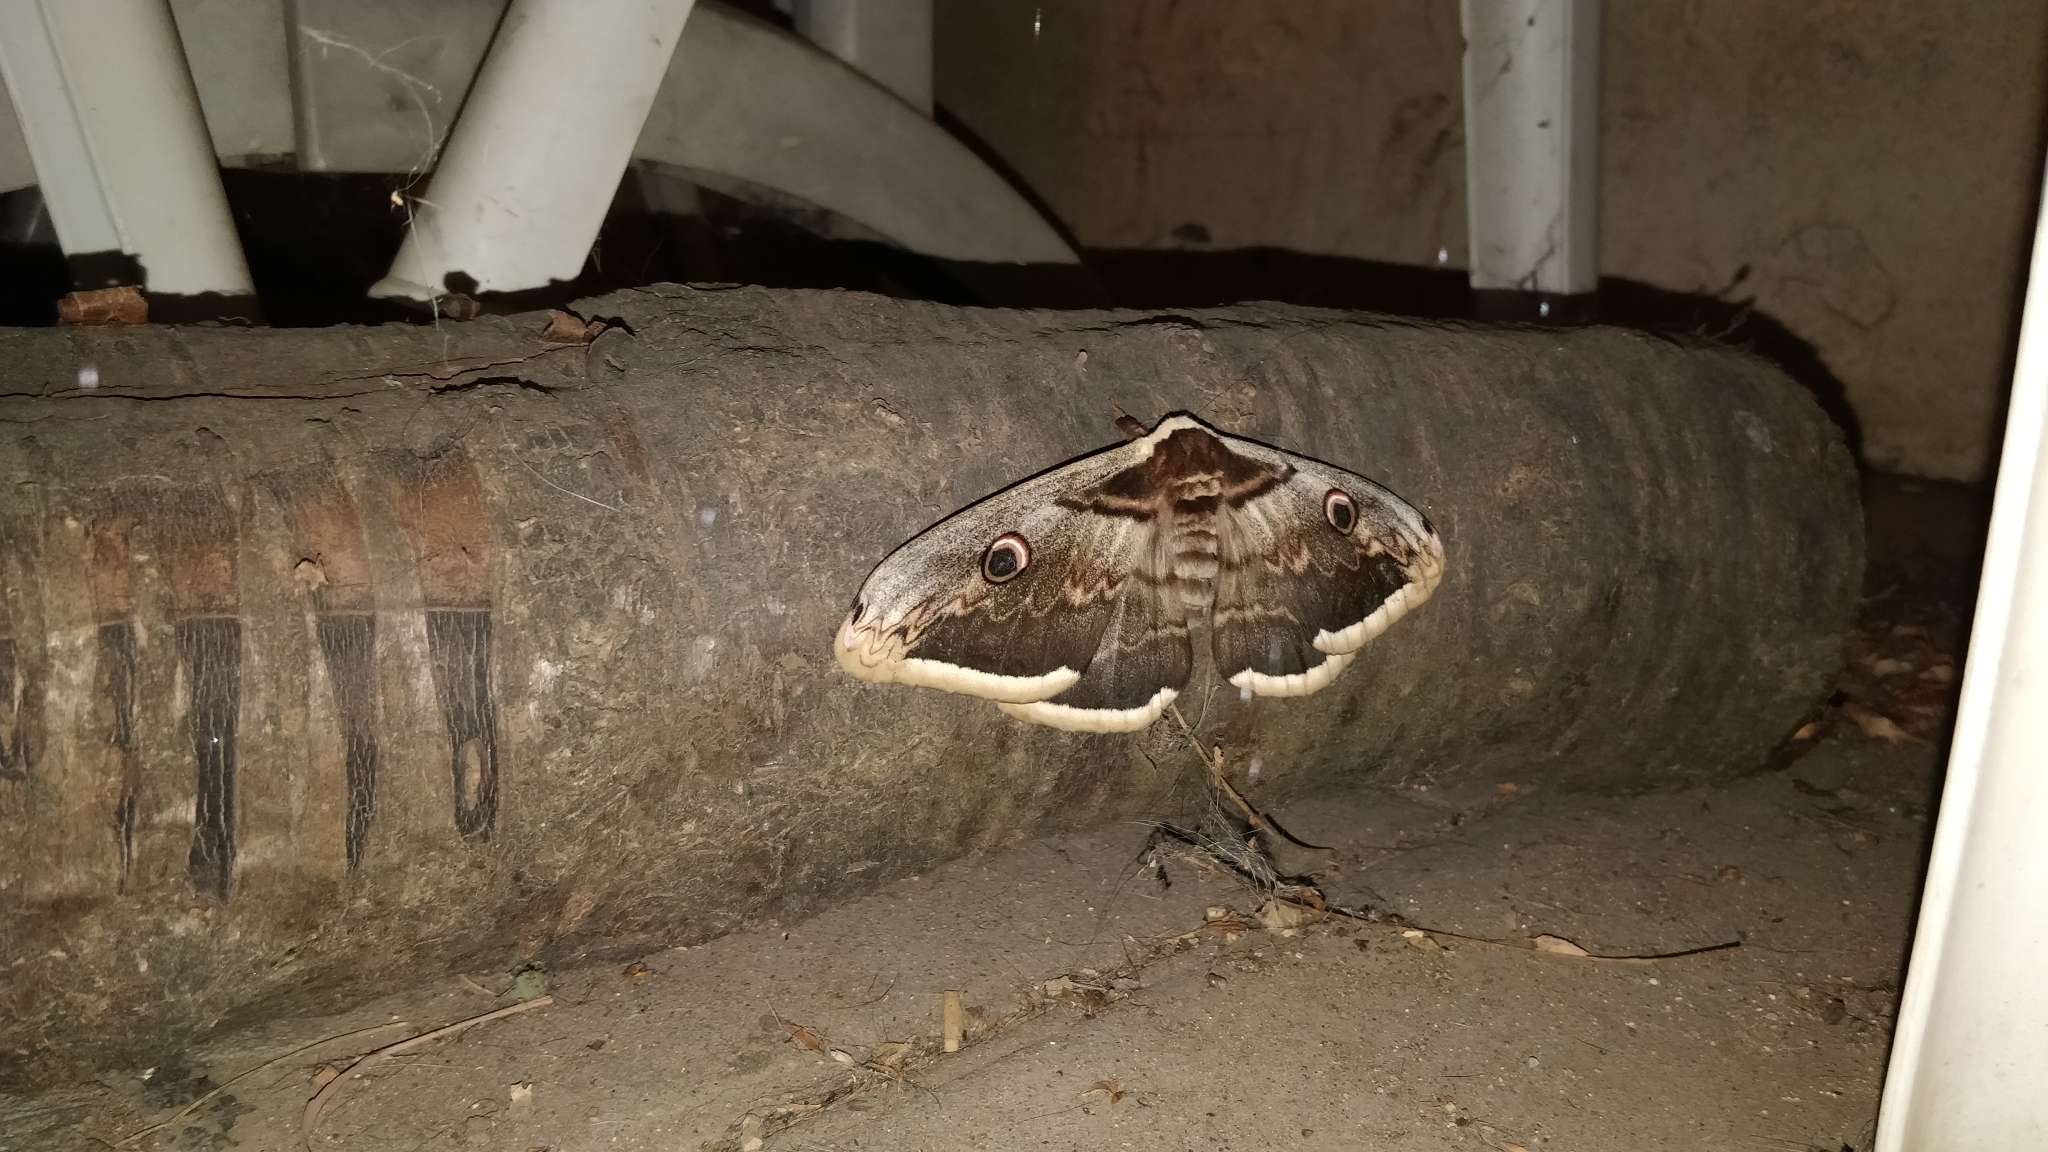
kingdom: Animalia
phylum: Arthropoda
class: Insecta
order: Lepidoptera
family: Saturniidae
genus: Saturnia
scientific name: Saturnia pyri
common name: Great peacock moth
